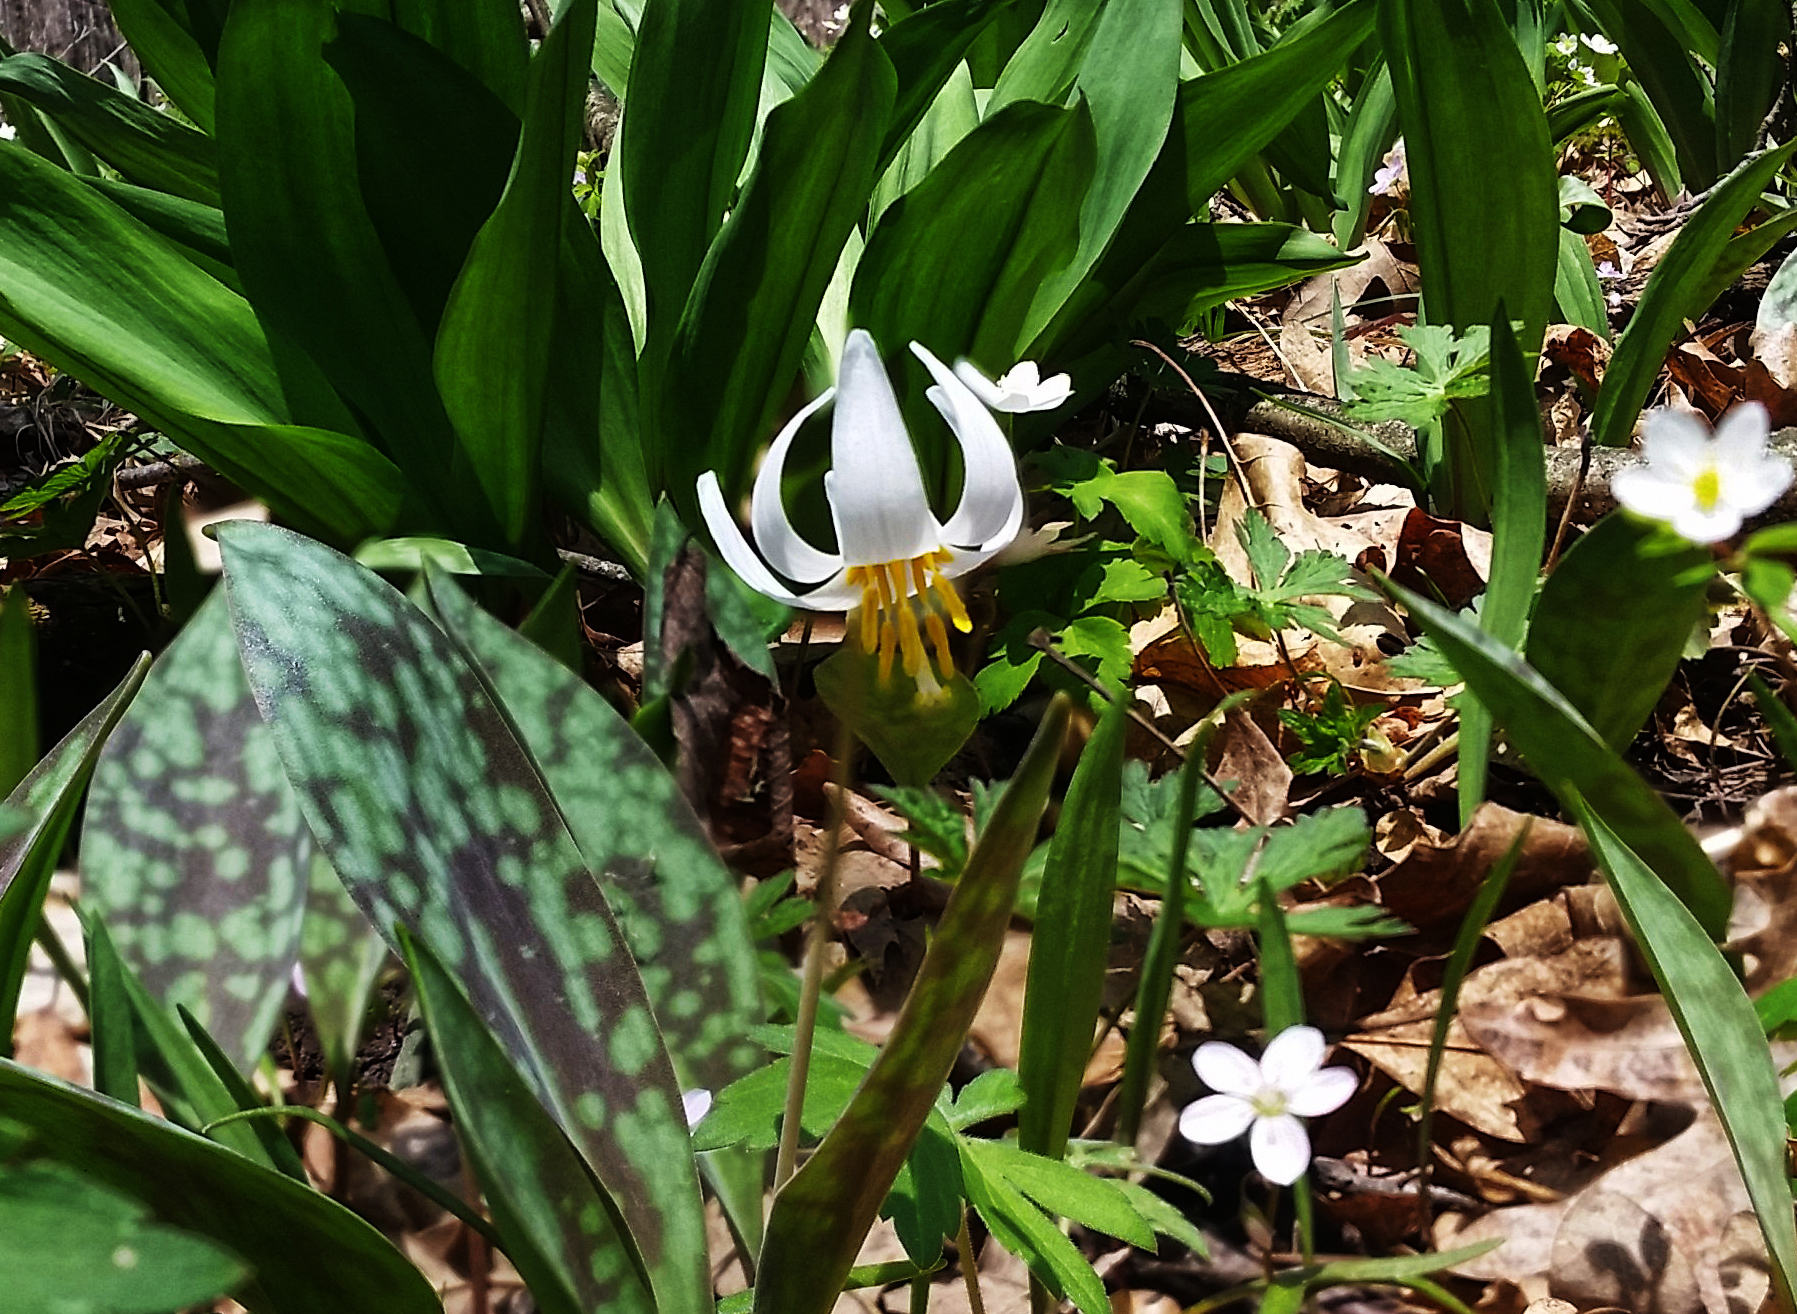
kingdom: Plantae
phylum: Tracheophyta
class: Liliopsida
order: Liliales
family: Liliaceae
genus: Erythronium
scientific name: Erythronium albidum
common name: White trout-lily
